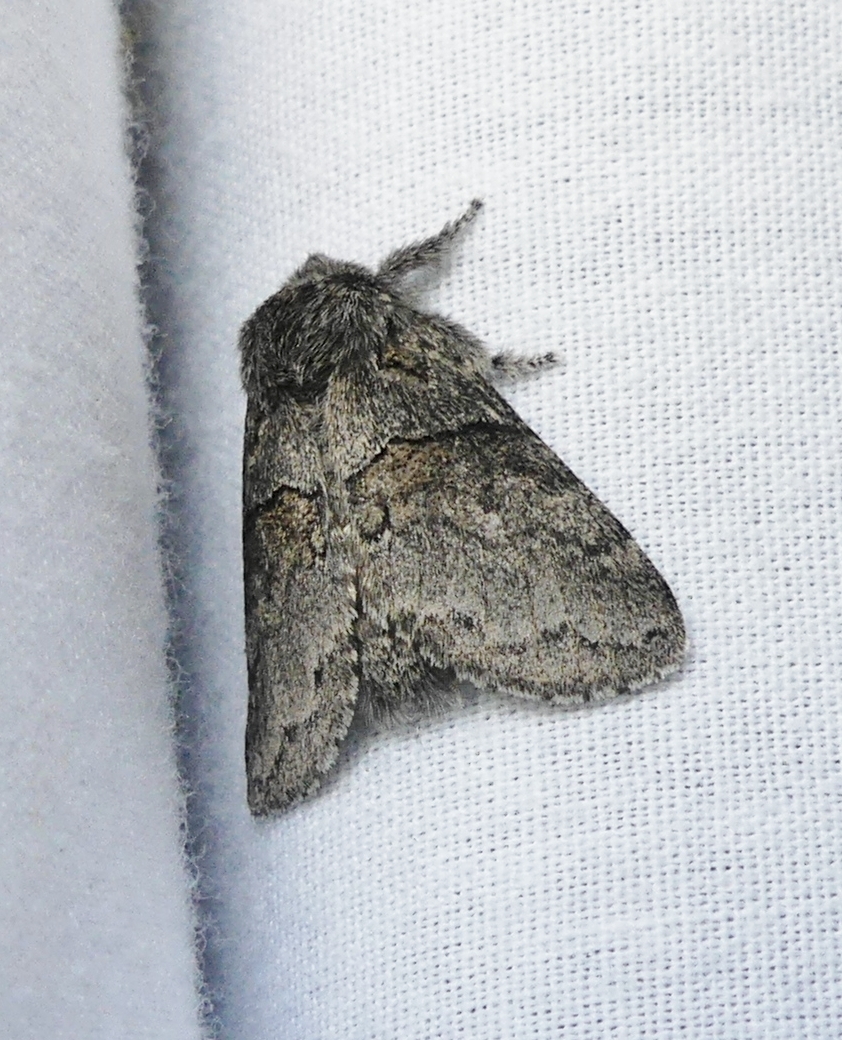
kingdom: Animalia
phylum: Arthropoda
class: Insecta
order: Lepidoptera
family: Notodontidae
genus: Gluphisia
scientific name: Gluphisia septentrionis
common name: Common gluphisia
